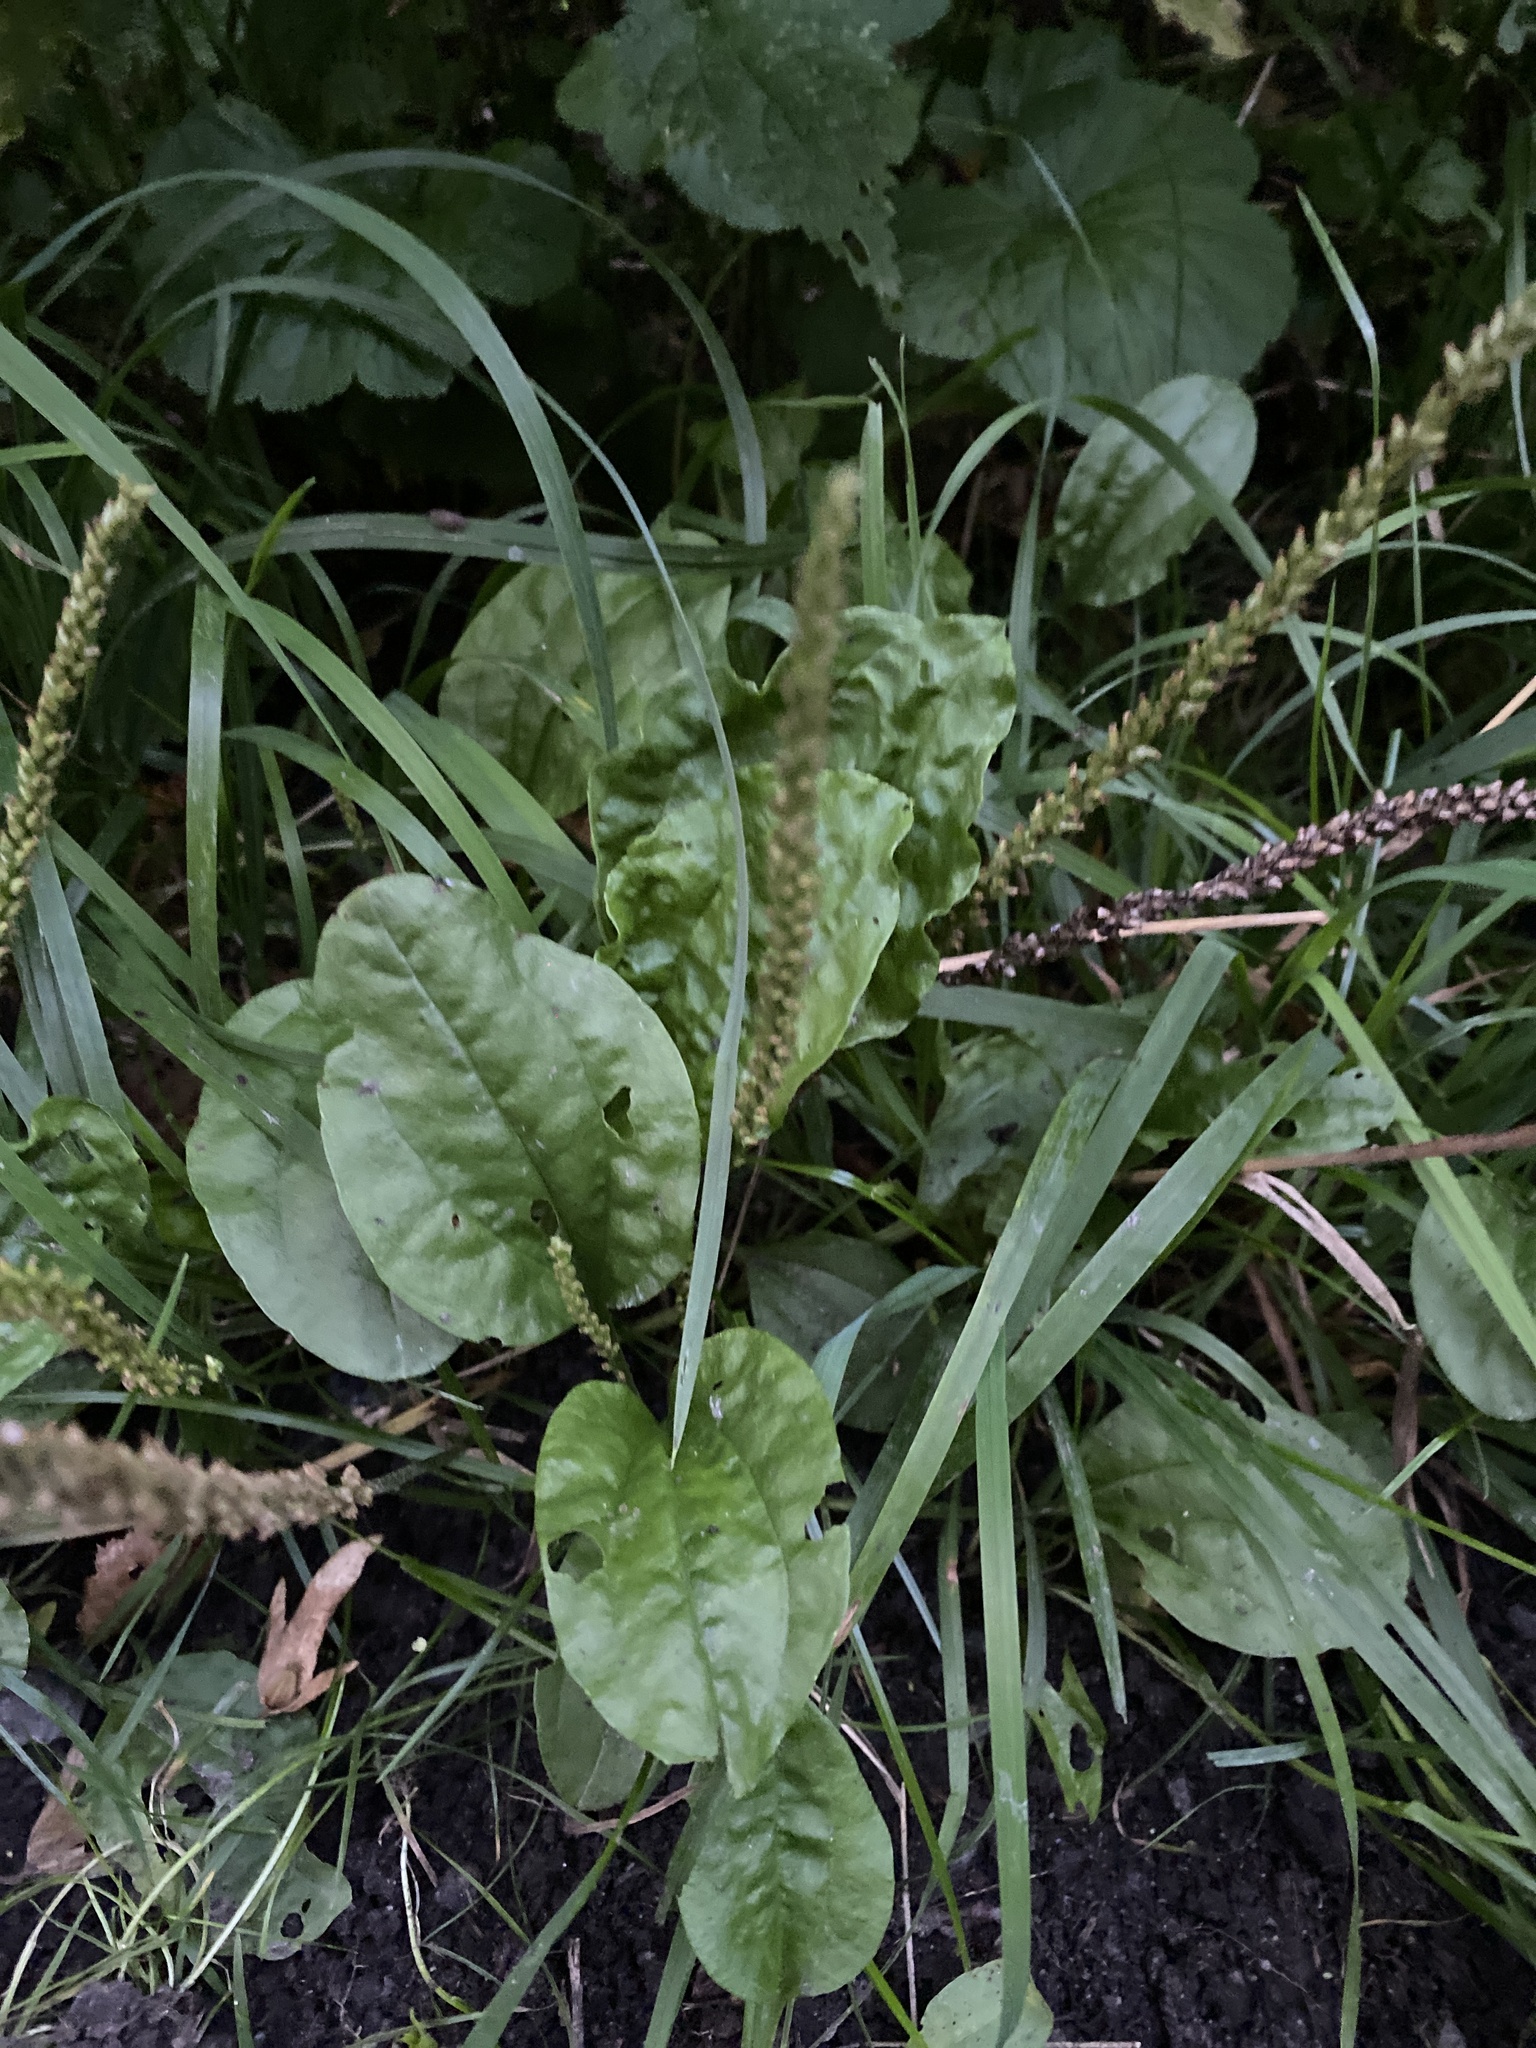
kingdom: Plantae
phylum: Tracheophyta
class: Magnoliopsida
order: Lamiales
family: Plantaginaceae
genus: Plantago
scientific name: Plantago major
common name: Common plantain
